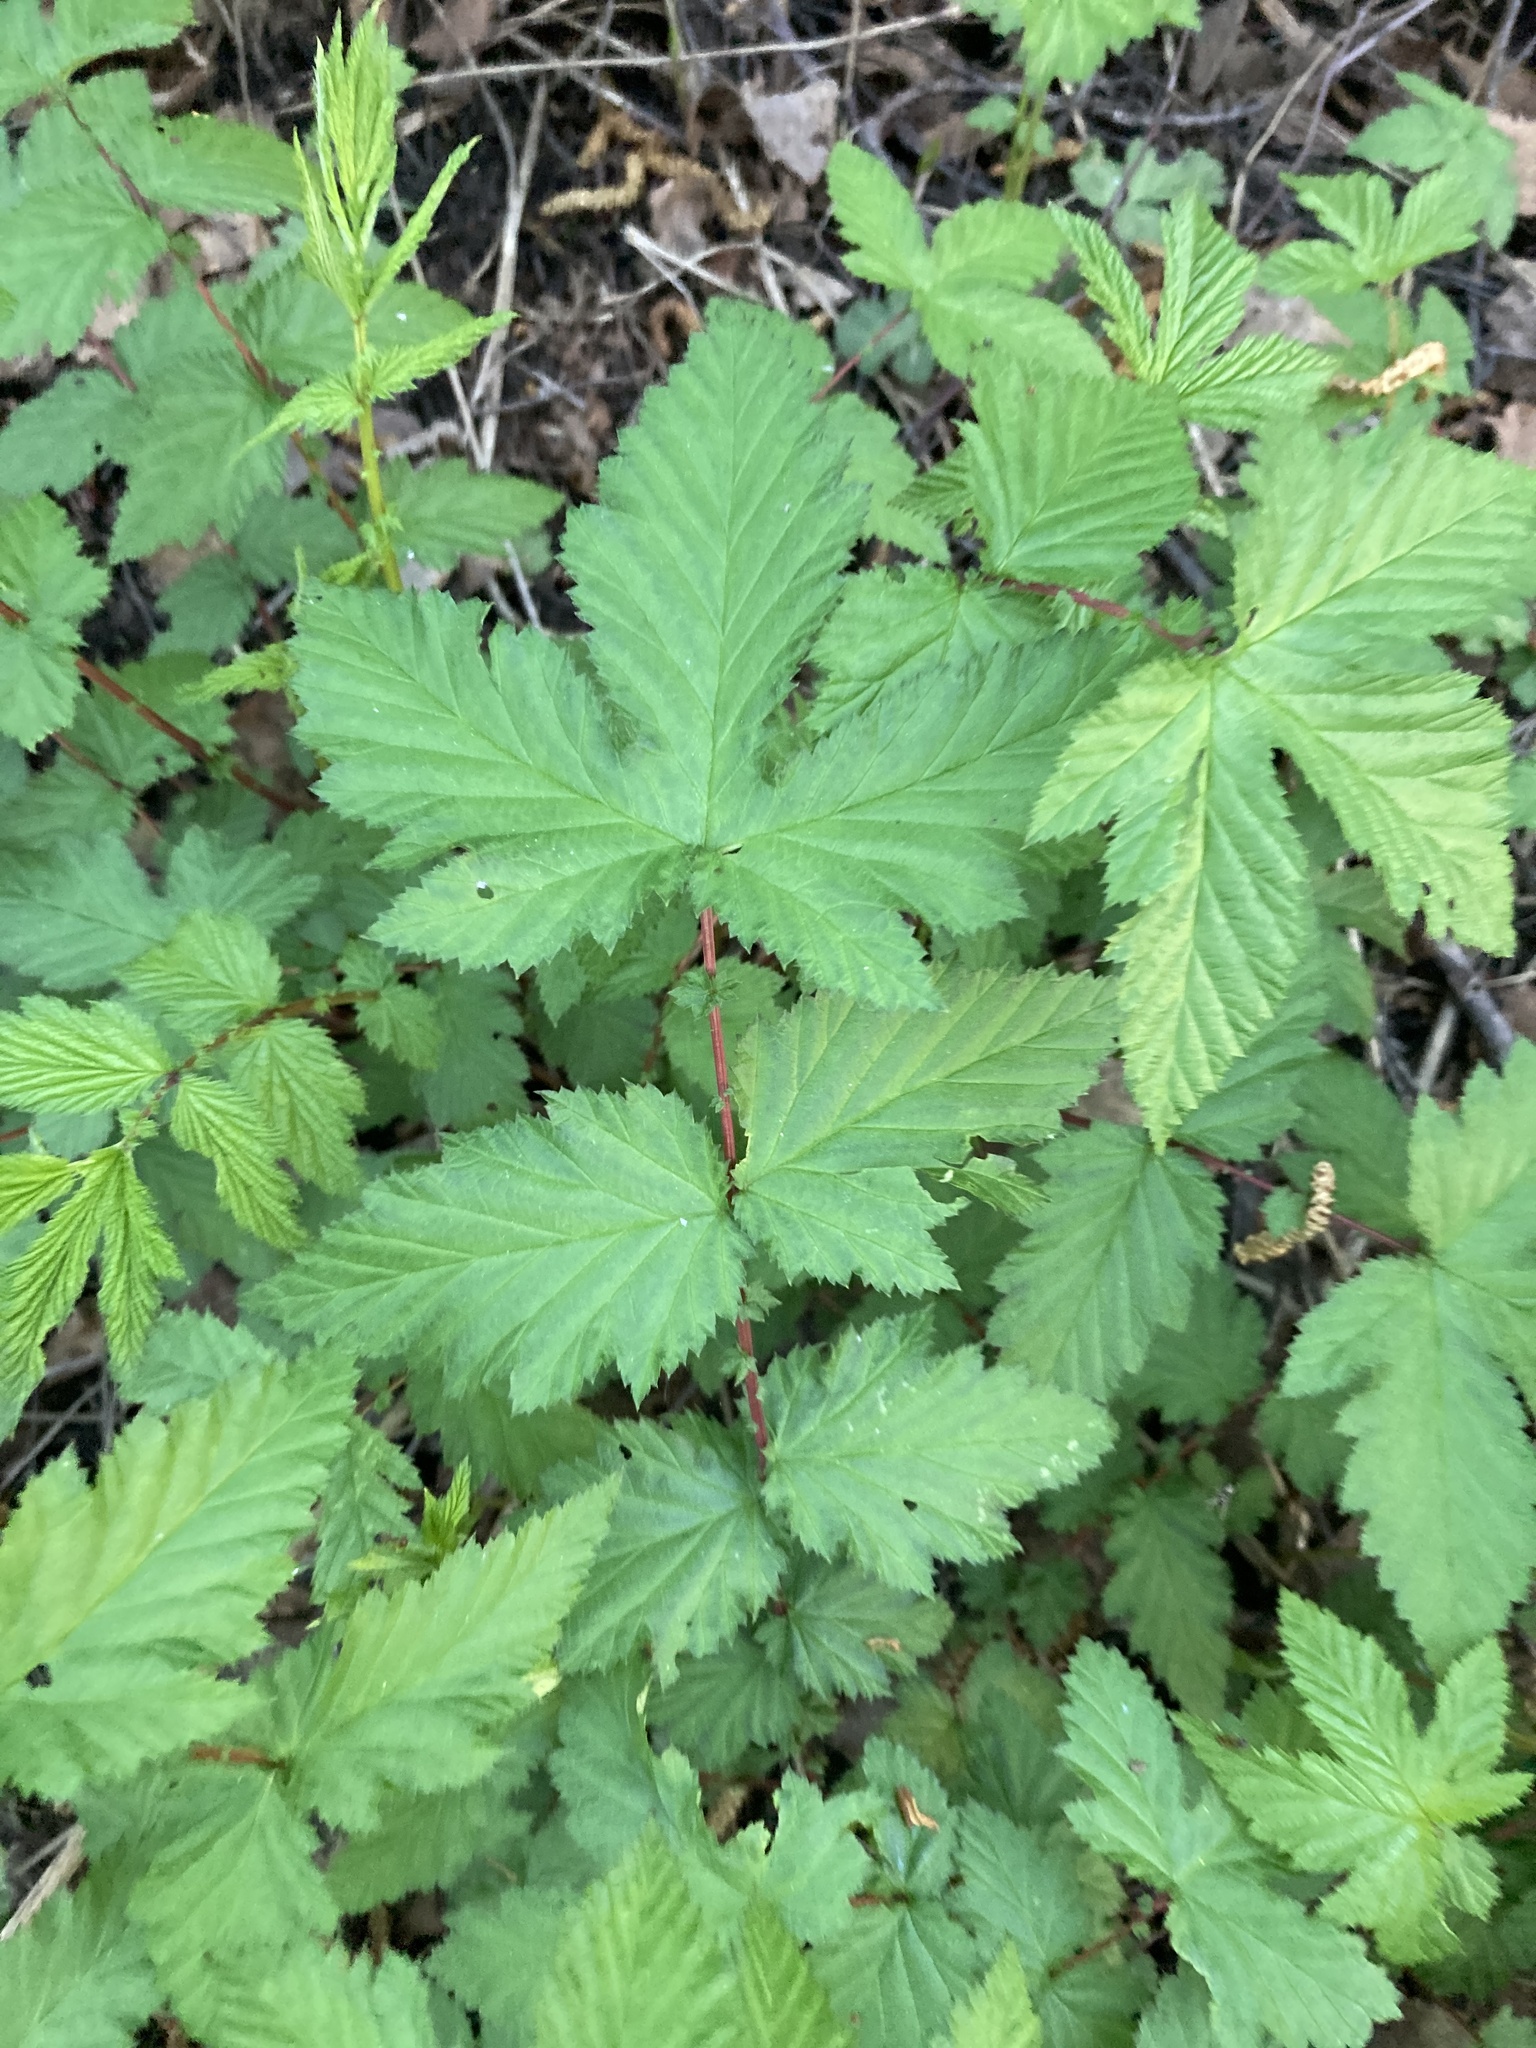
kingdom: Plantae
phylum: Tracheophyta
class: Magnoliopsida
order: Rosales
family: Rosaceae
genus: Filipendula
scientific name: Filipendula ulmaria
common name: Meadowsweet
